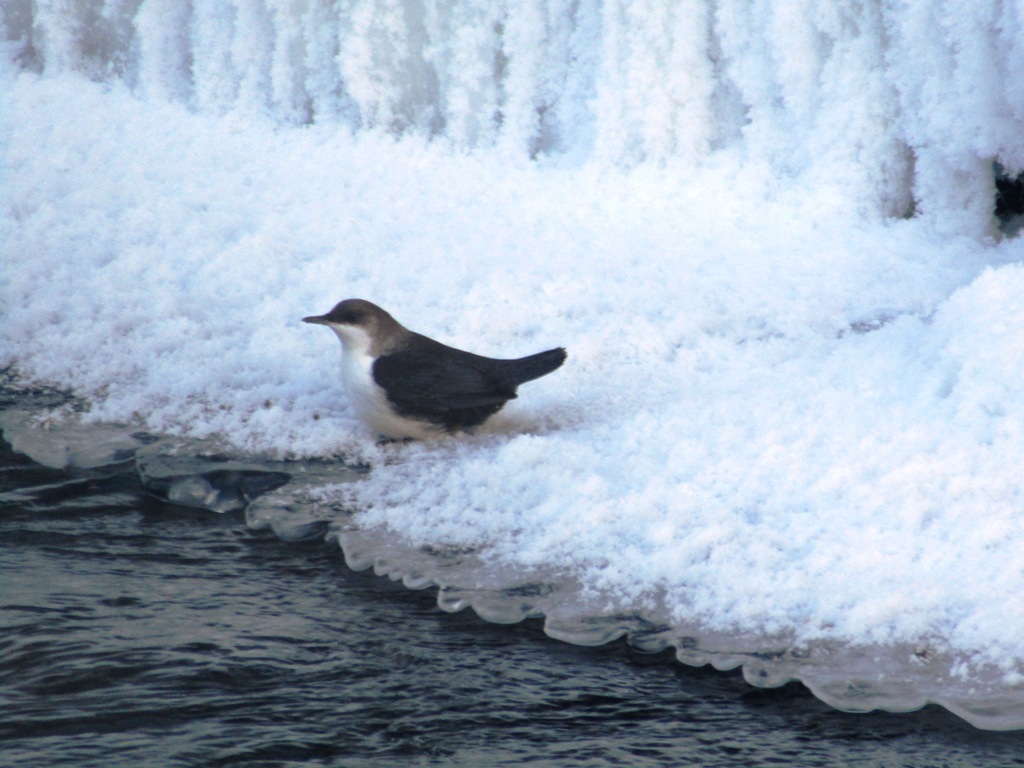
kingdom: Animalia
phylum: Chordata
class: Aves
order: Passeriformes
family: Cinclidae
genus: Cinclus
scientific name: Cinclus cinclus
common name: White-throated dipper
